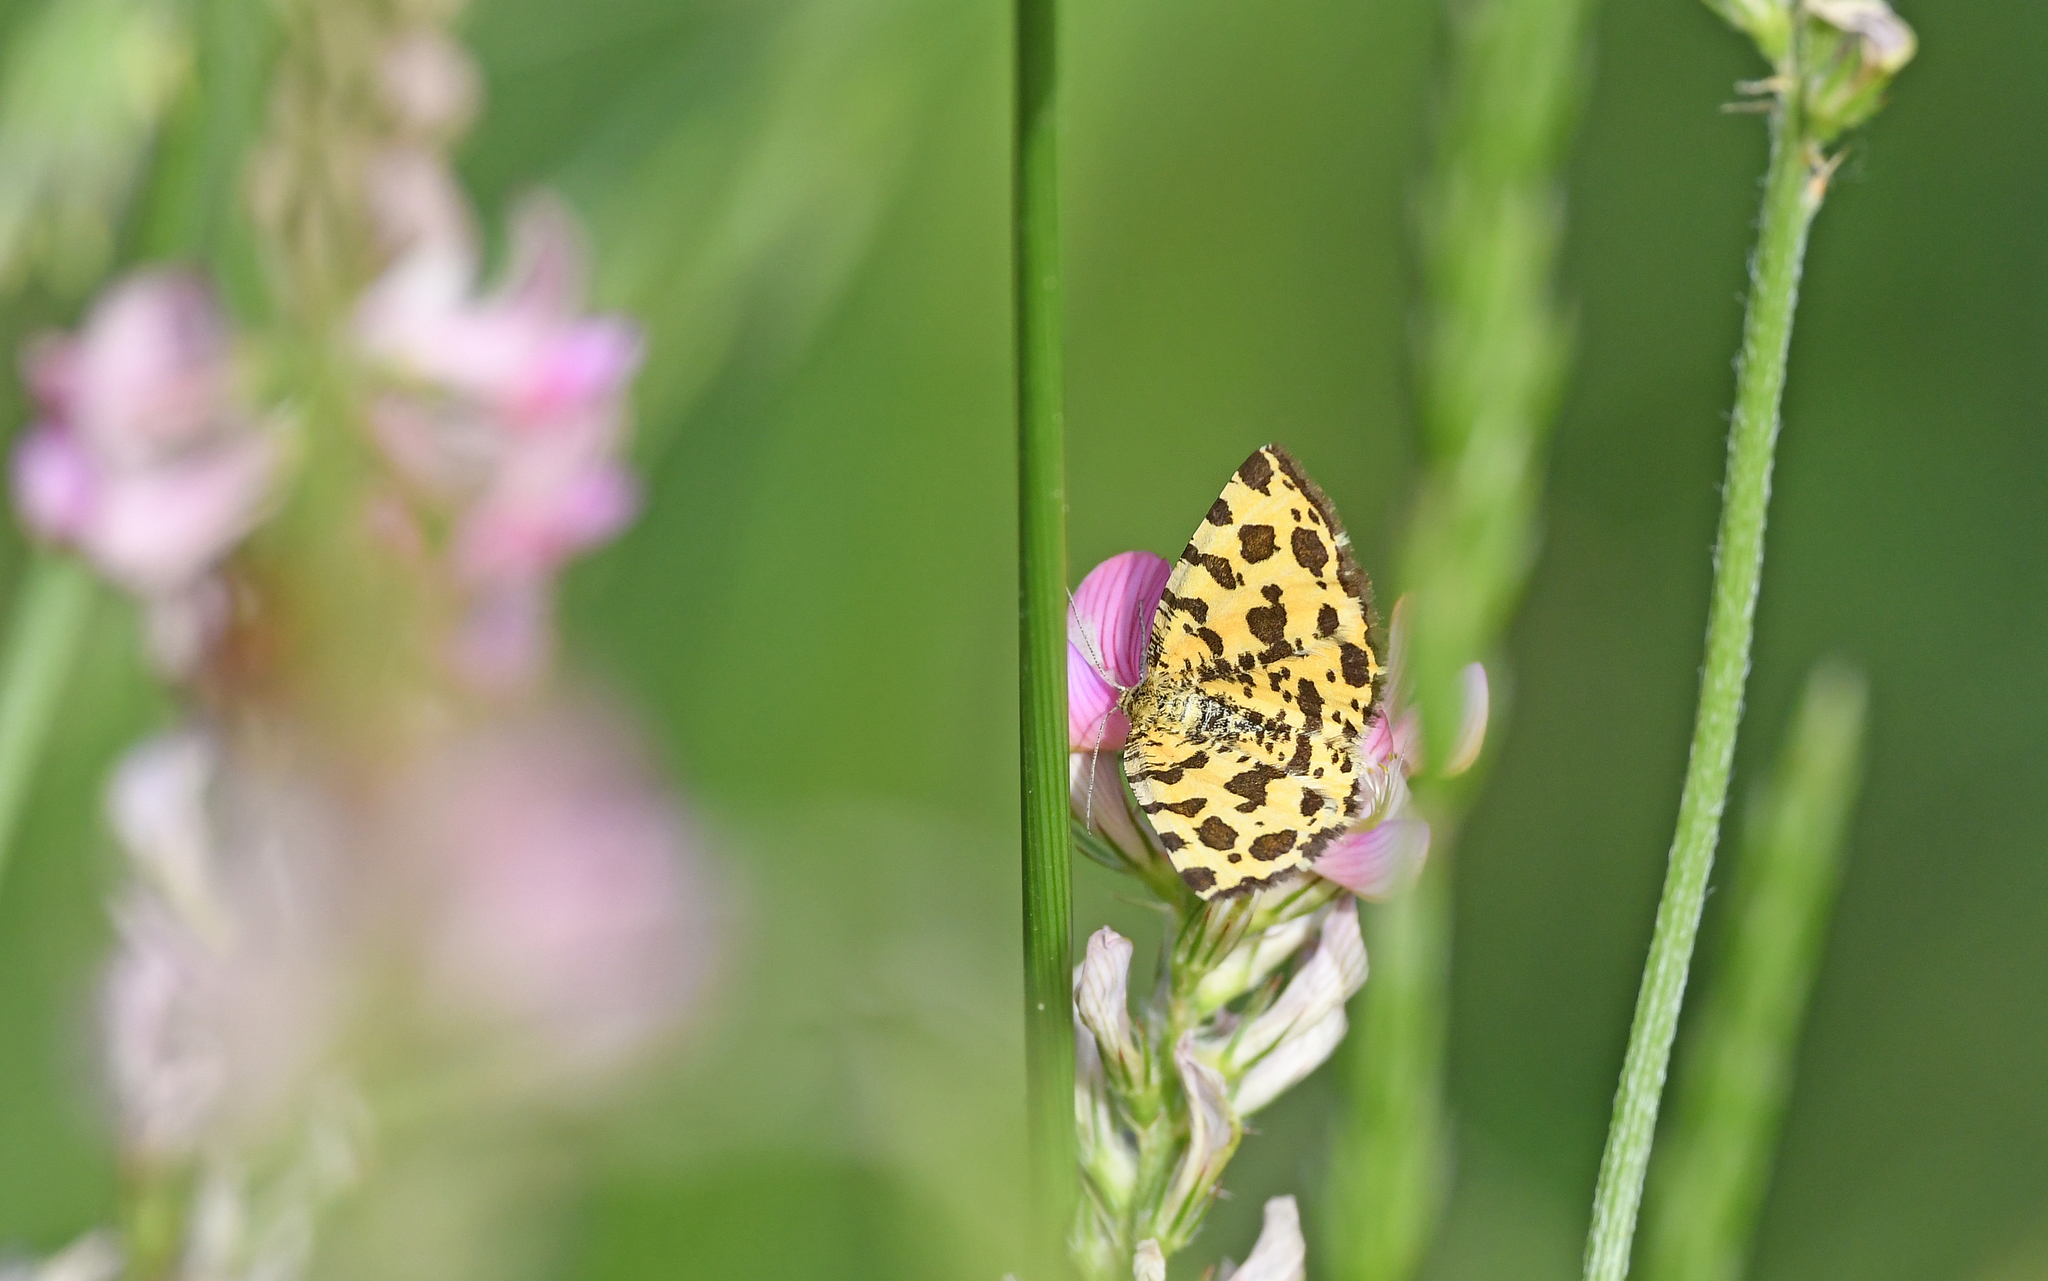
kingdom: Animalia
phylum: Arthropoda
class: Insecta
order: Lepidoptera
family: Geometridae
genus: Pseudopanthera
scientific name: Pseudopanthera macularia
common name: Speckled yellow
